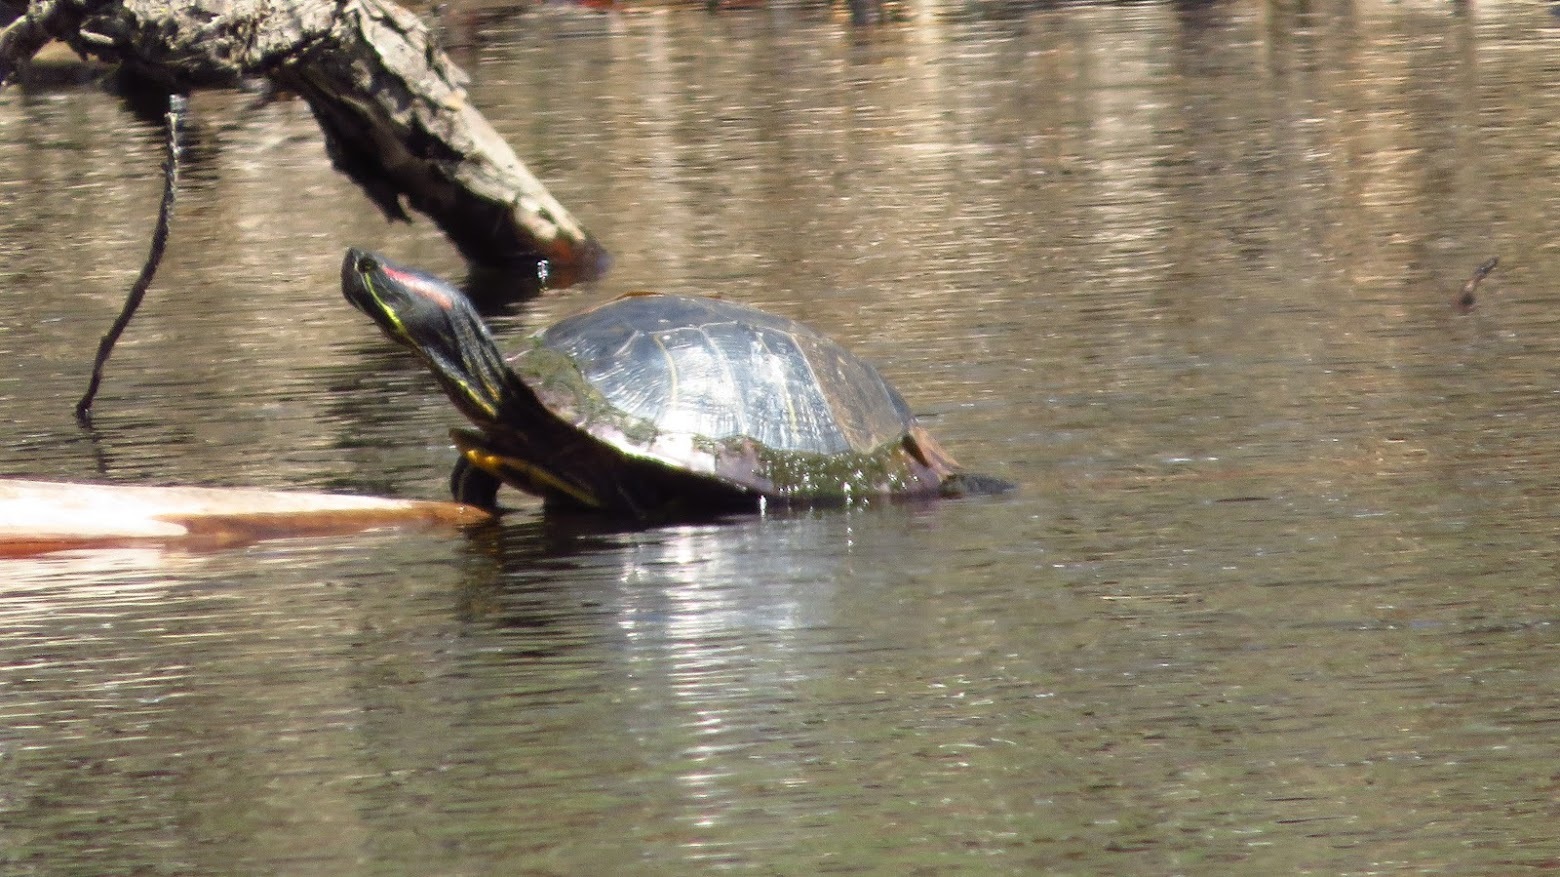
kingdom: Animalia
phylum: Chordata
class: Testudines
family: Emydidae
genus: Trachemys
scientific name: Trachemys scripta
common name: Slider
